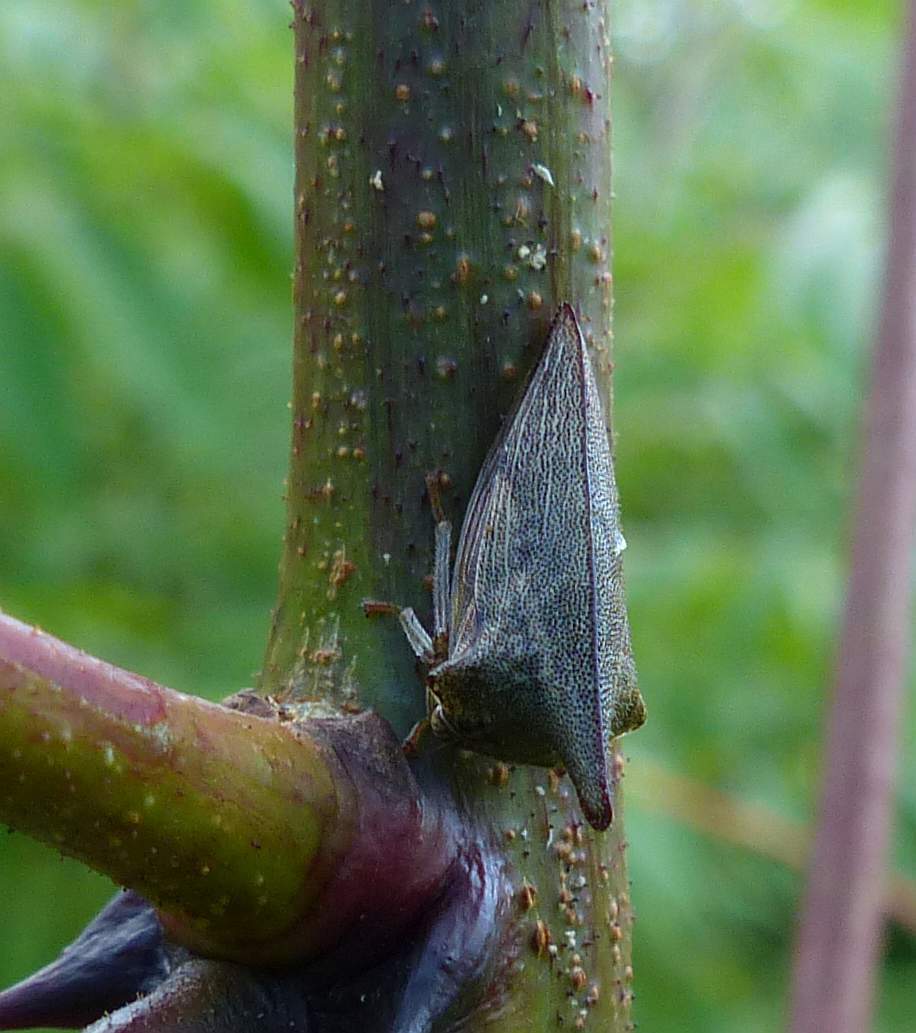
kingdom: Animalia
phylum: Arthropoda
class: Insecta
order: Hemiptera
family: Membracidae
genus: Thelia
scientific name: Thelia bimaculata
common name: Locust treehopper
